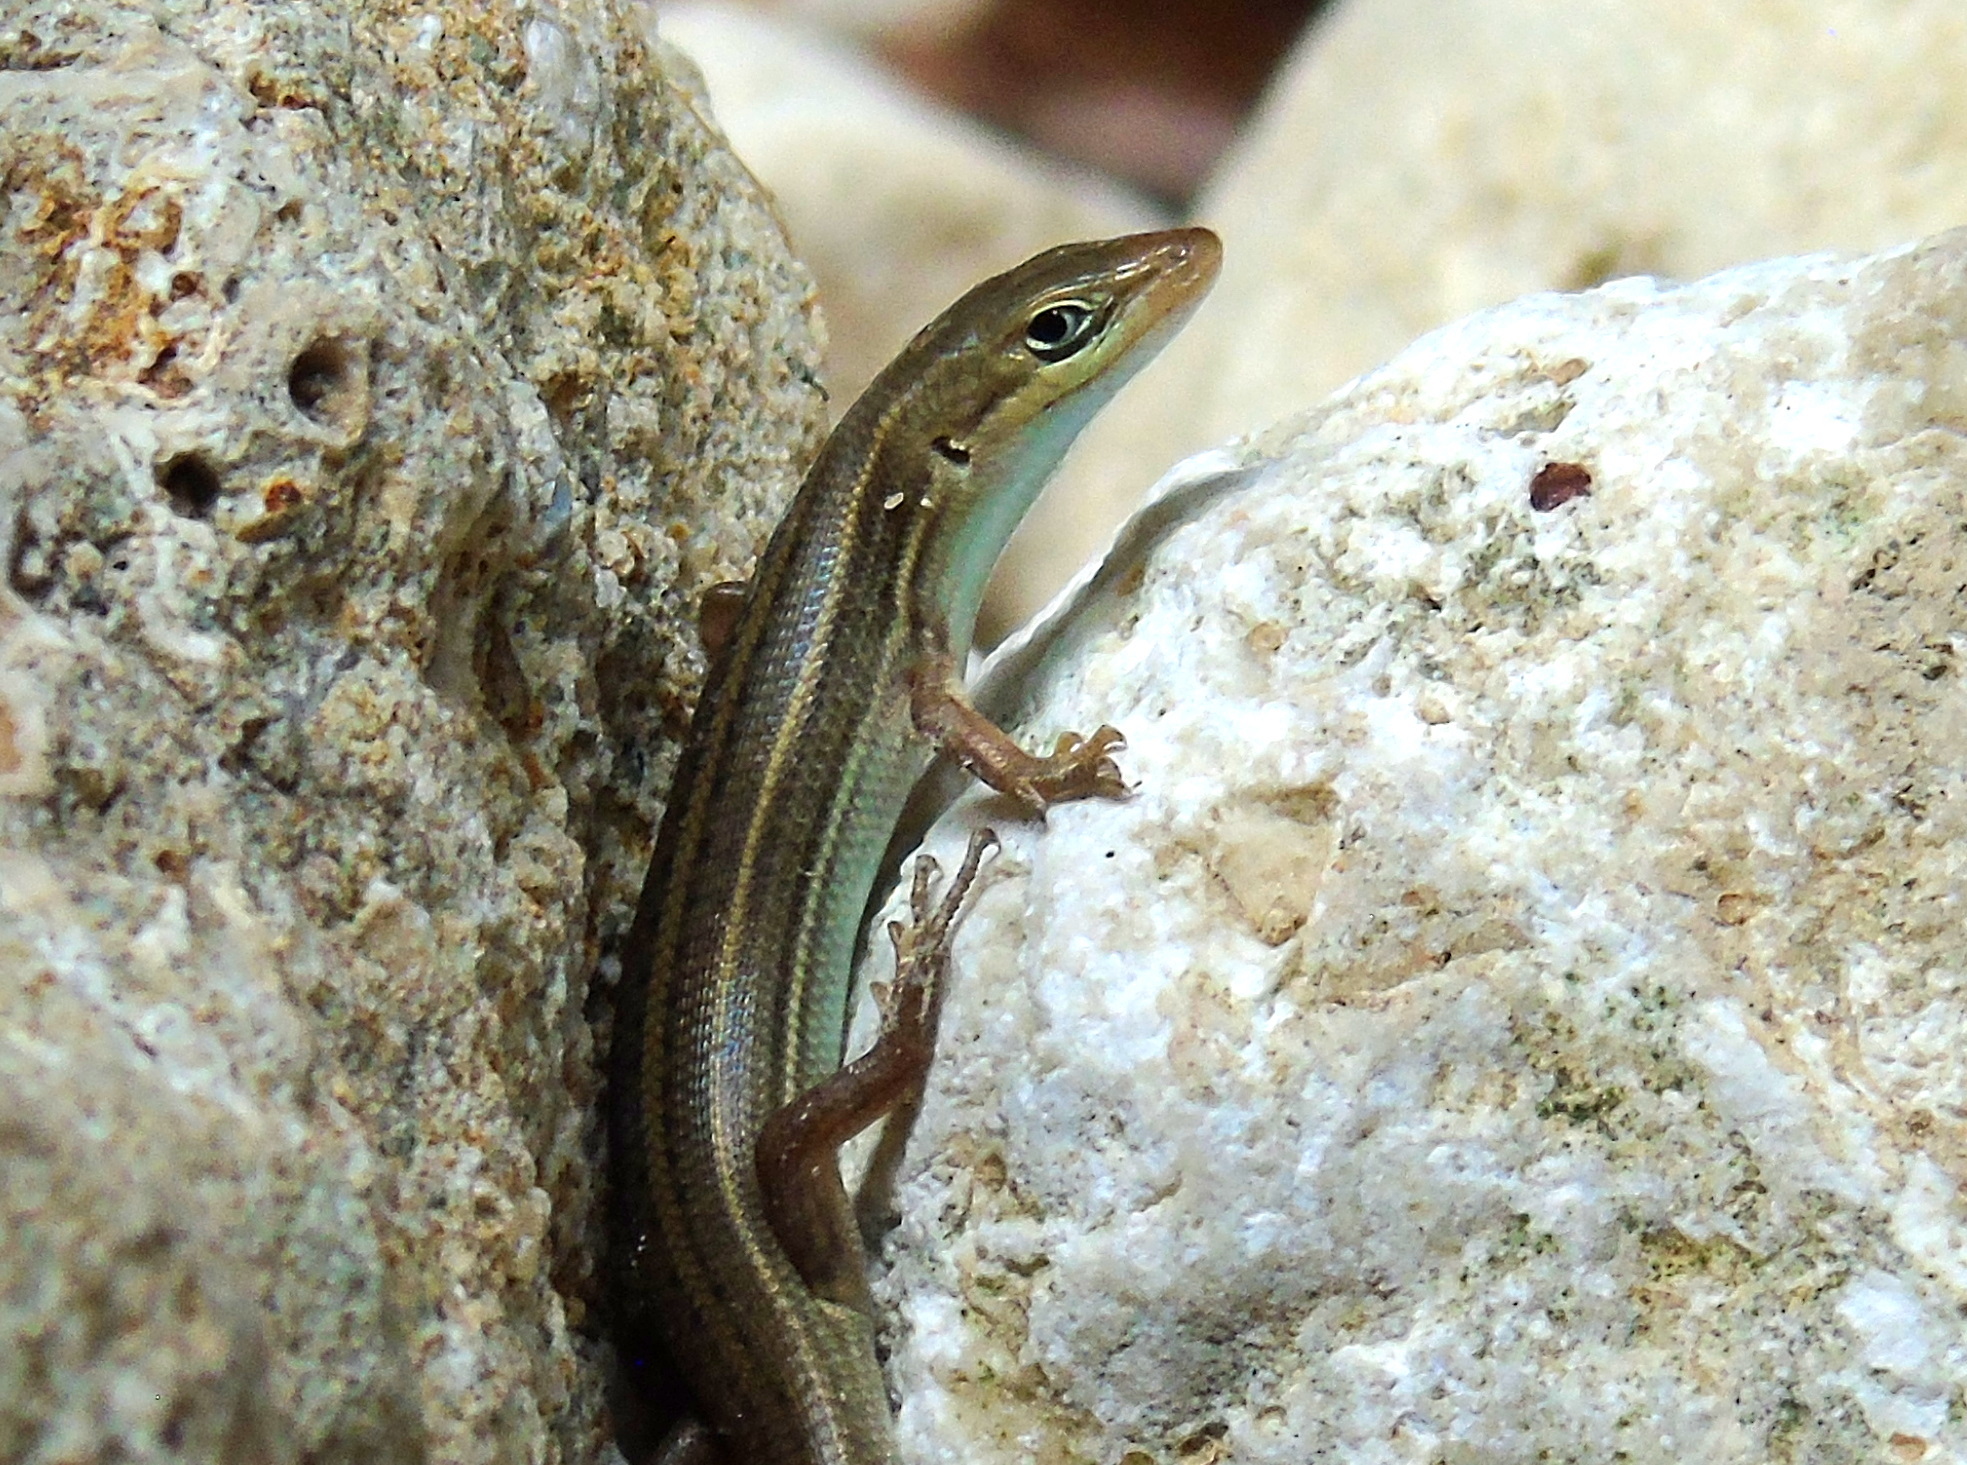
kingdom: Animalia
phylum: Chordata
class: Squamata
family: Scincidae
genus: Heremites
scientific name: Heremites vittatus
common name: Bridled mabuya
